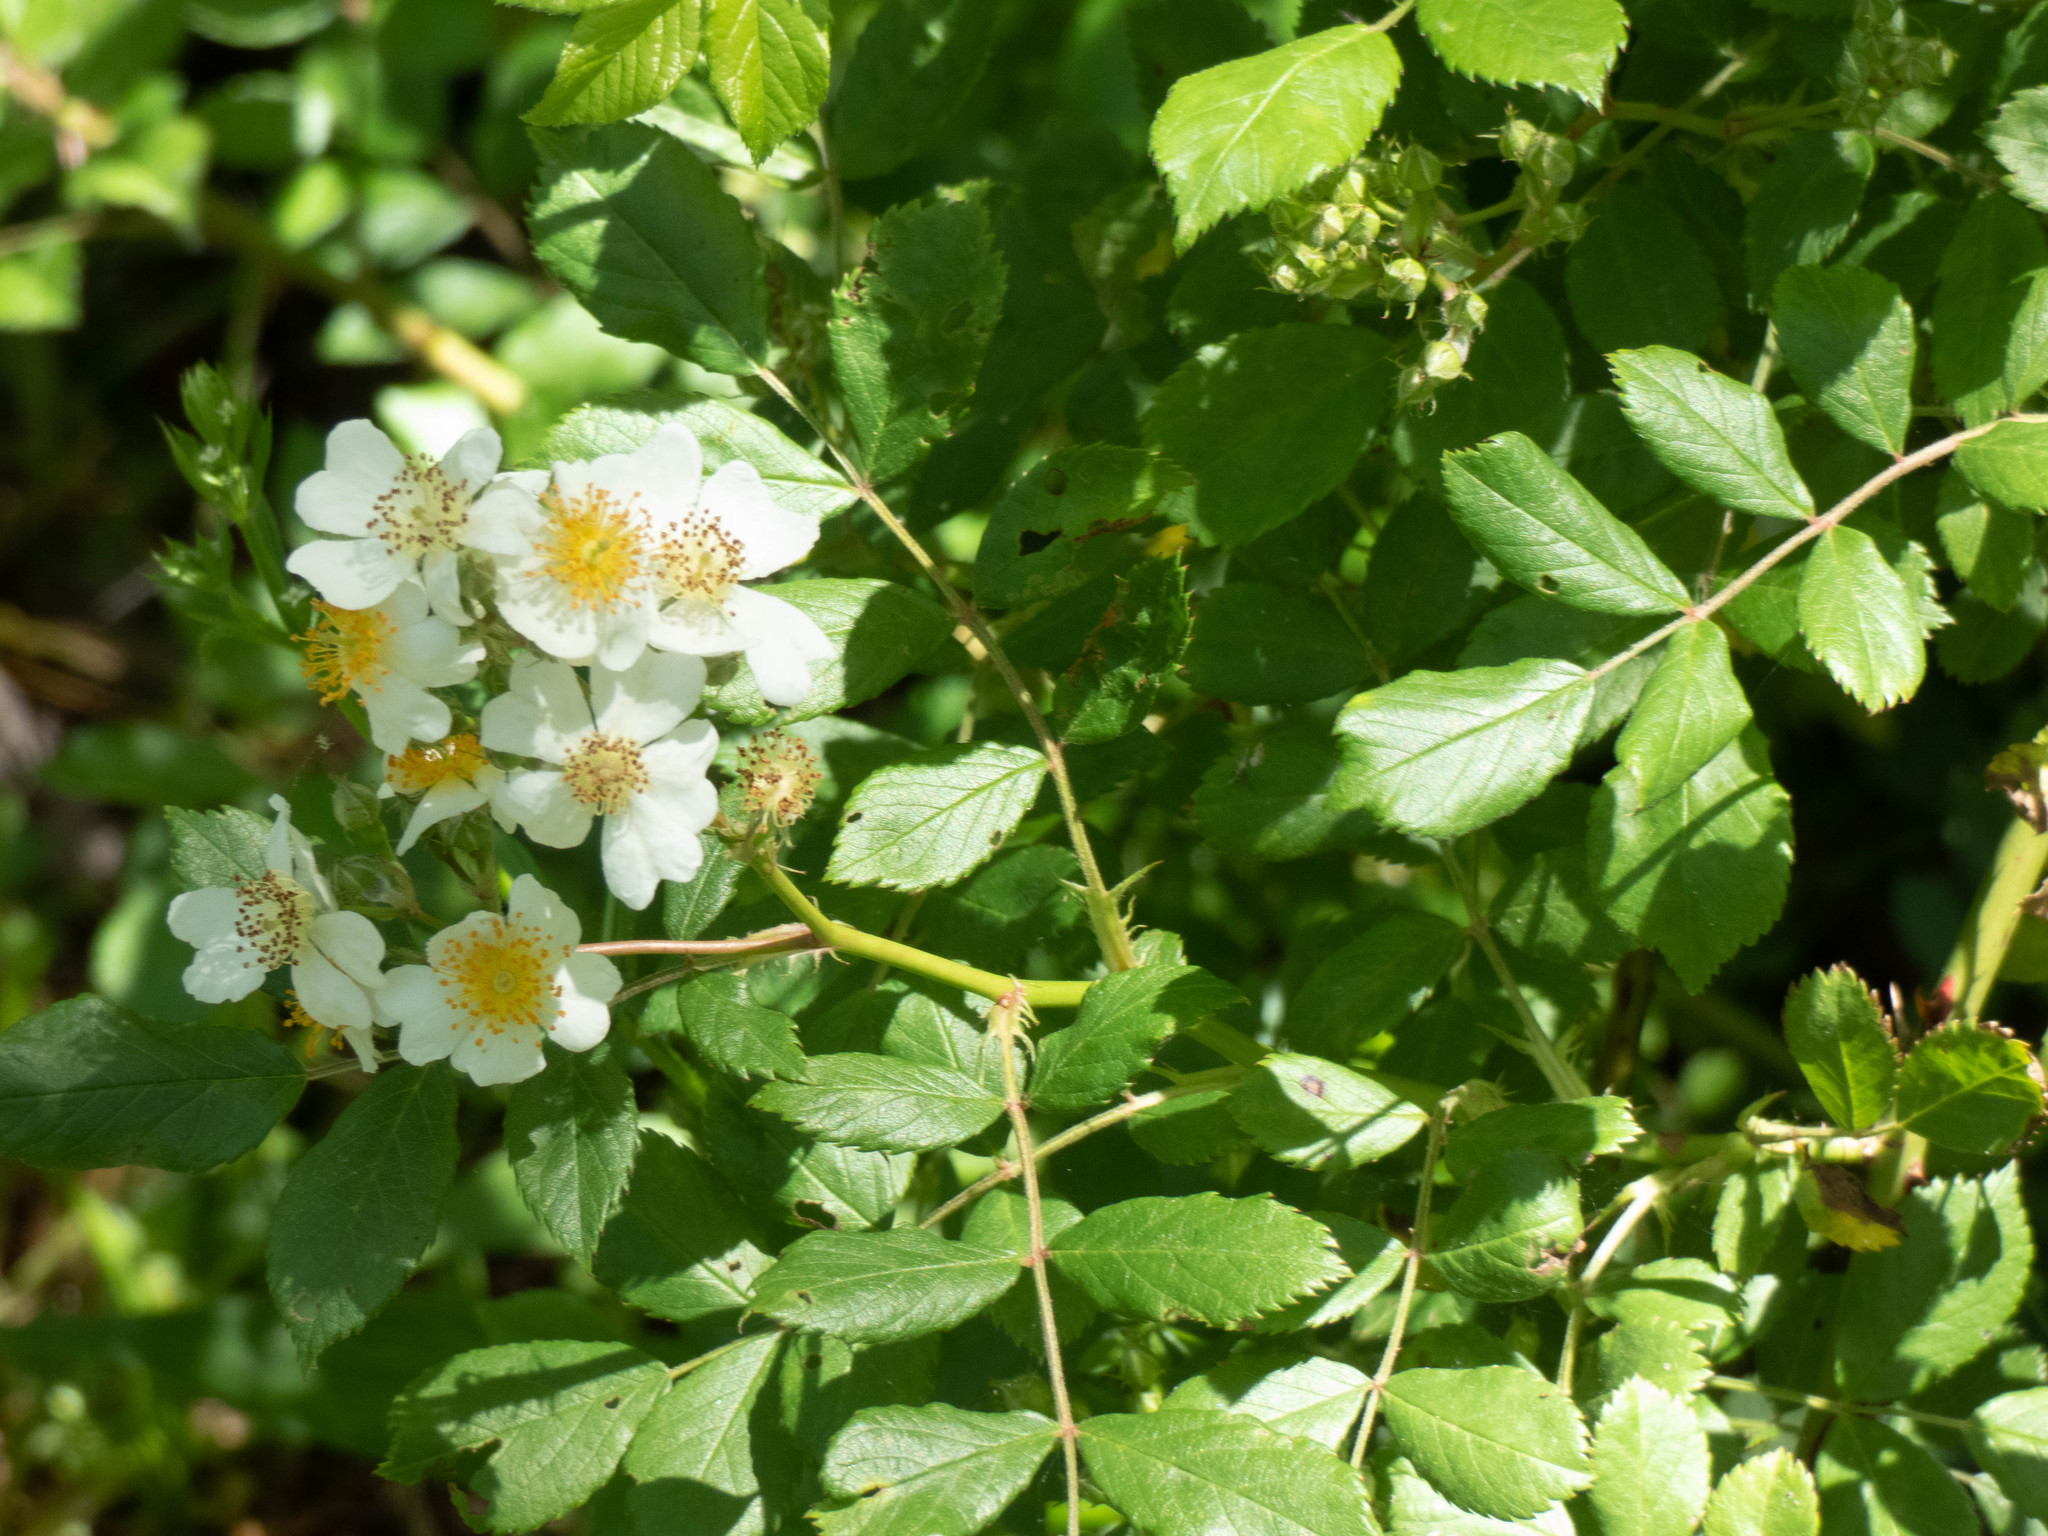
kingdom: Plantae
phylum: Tracheophyta
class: Magnoliopsida
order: Rosales
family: Rosaceae
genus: Rosa
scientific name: Rosa multiflora
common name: Multiflora rose
